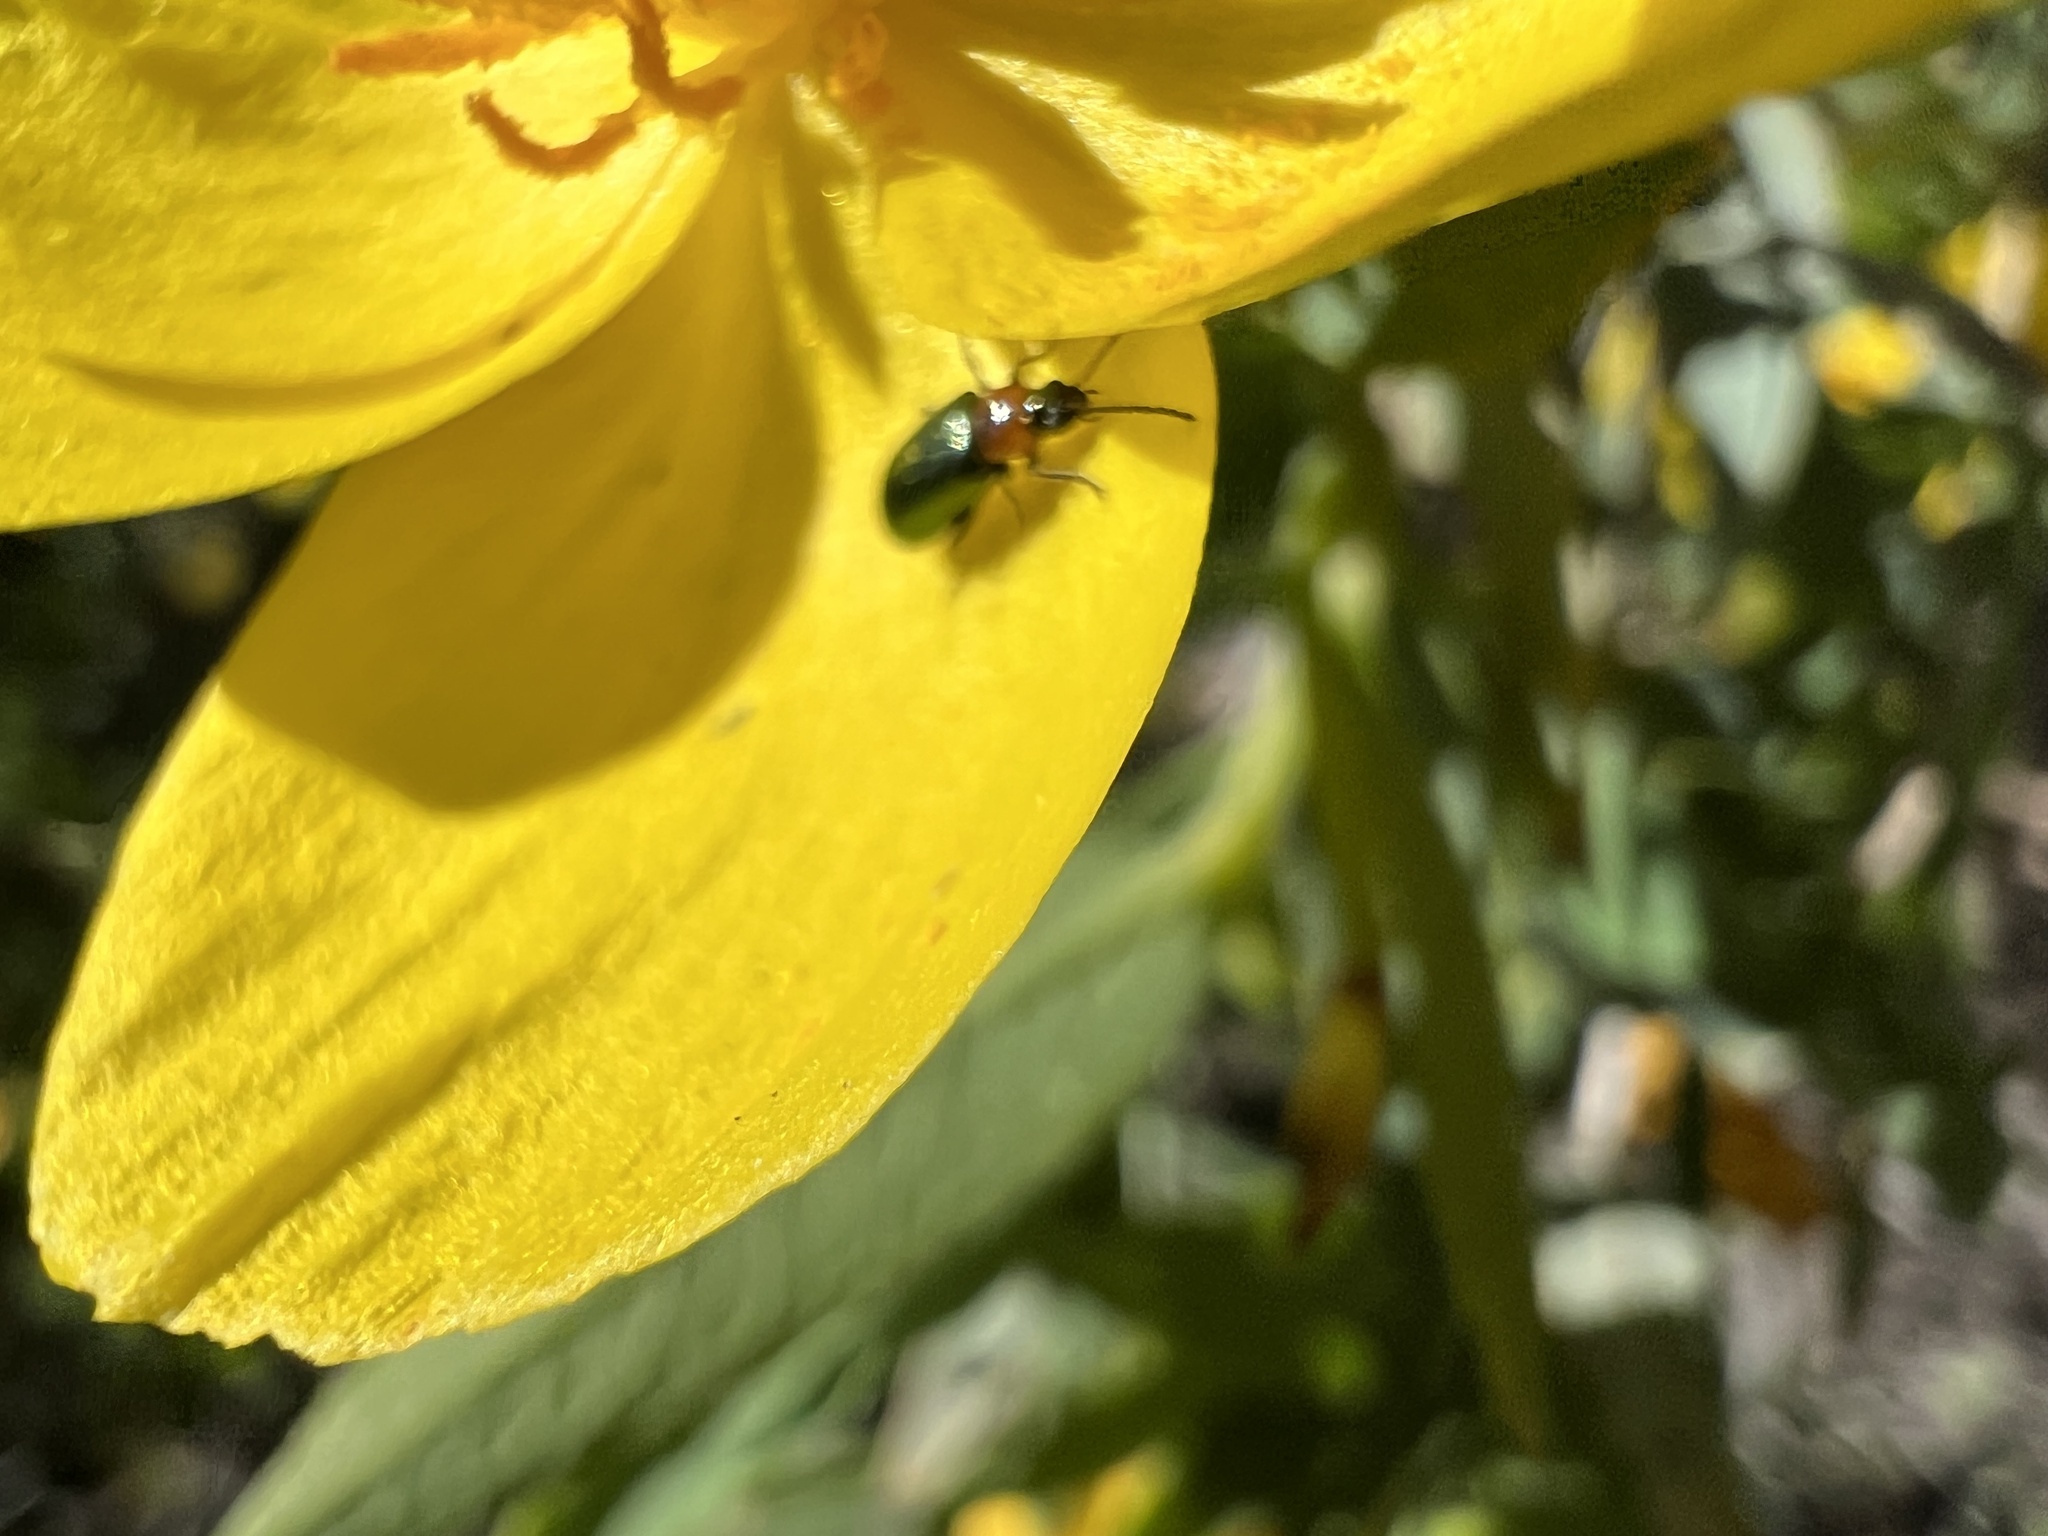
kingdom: Animalia
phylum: Arthropoda
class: Insecta
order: Coleoptera
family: Chrysomelidae
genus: Scelolyperus
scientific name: Scelolyperus torquatus
